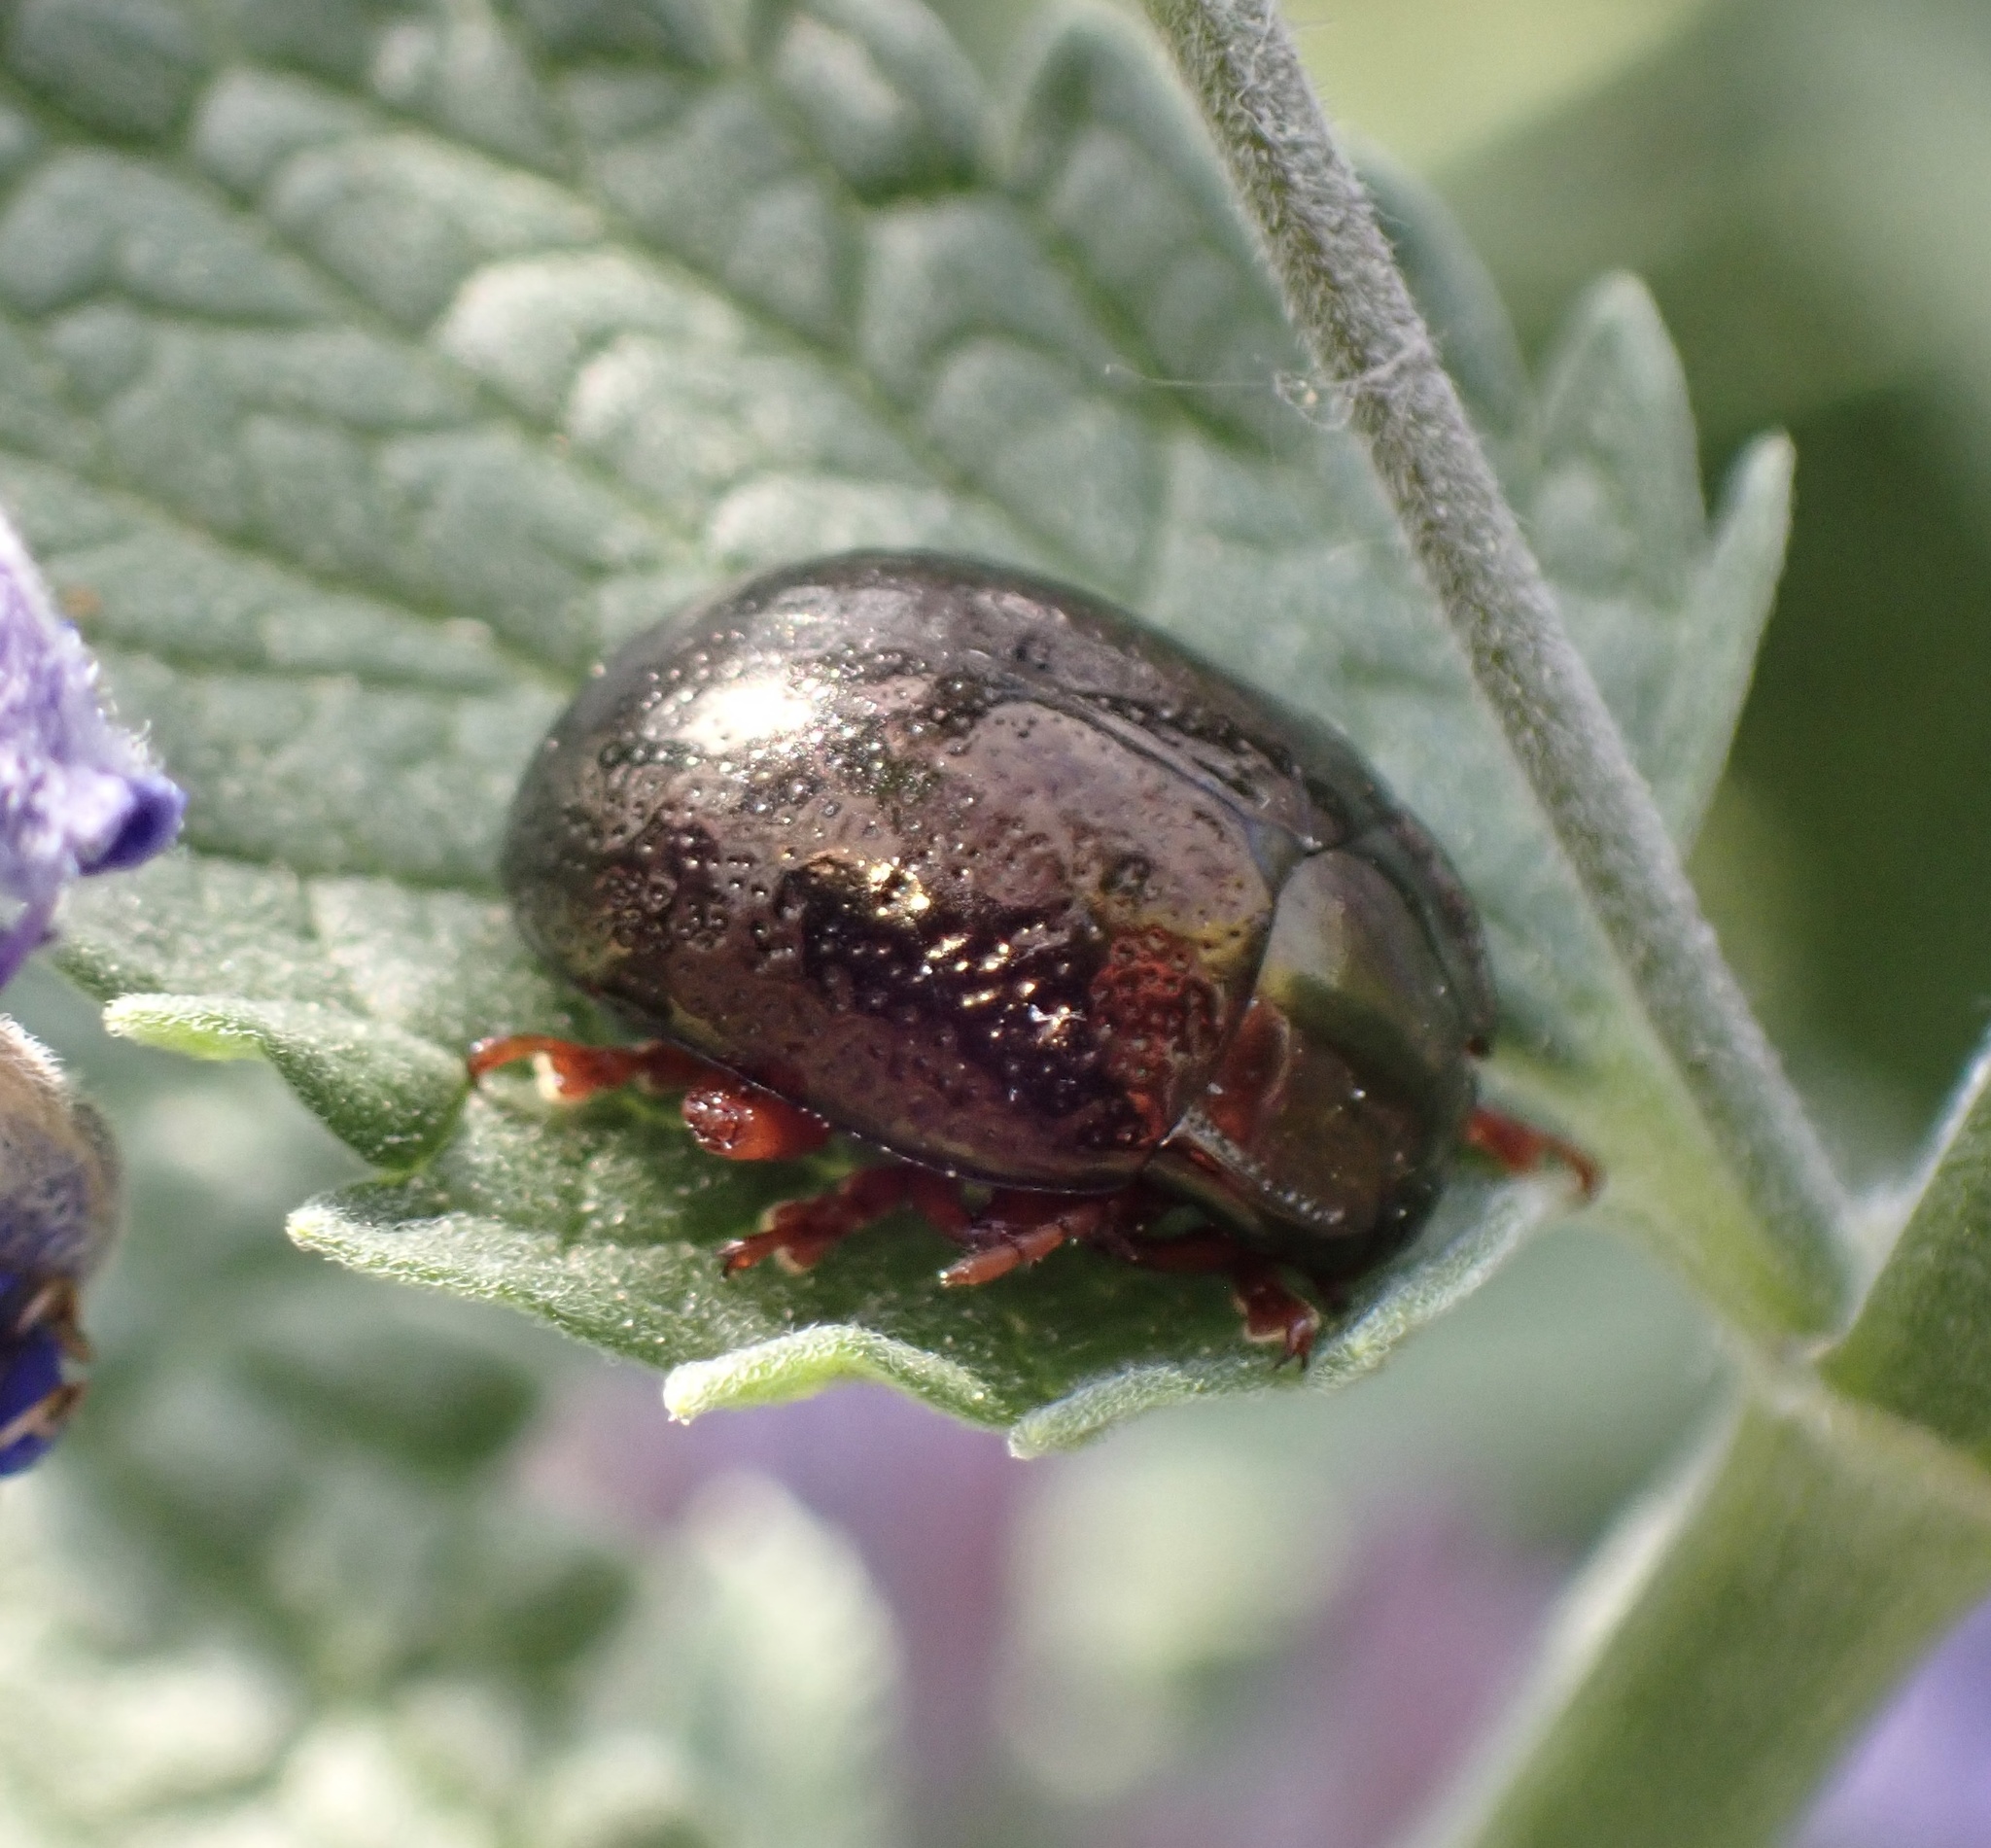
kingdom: Animalia
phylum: Arthropoda
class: Insecta
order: Coleoptera
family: Chrysomelidae
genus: Chrysolina
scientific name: Chrysolina bankii
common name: Leaf beetle
